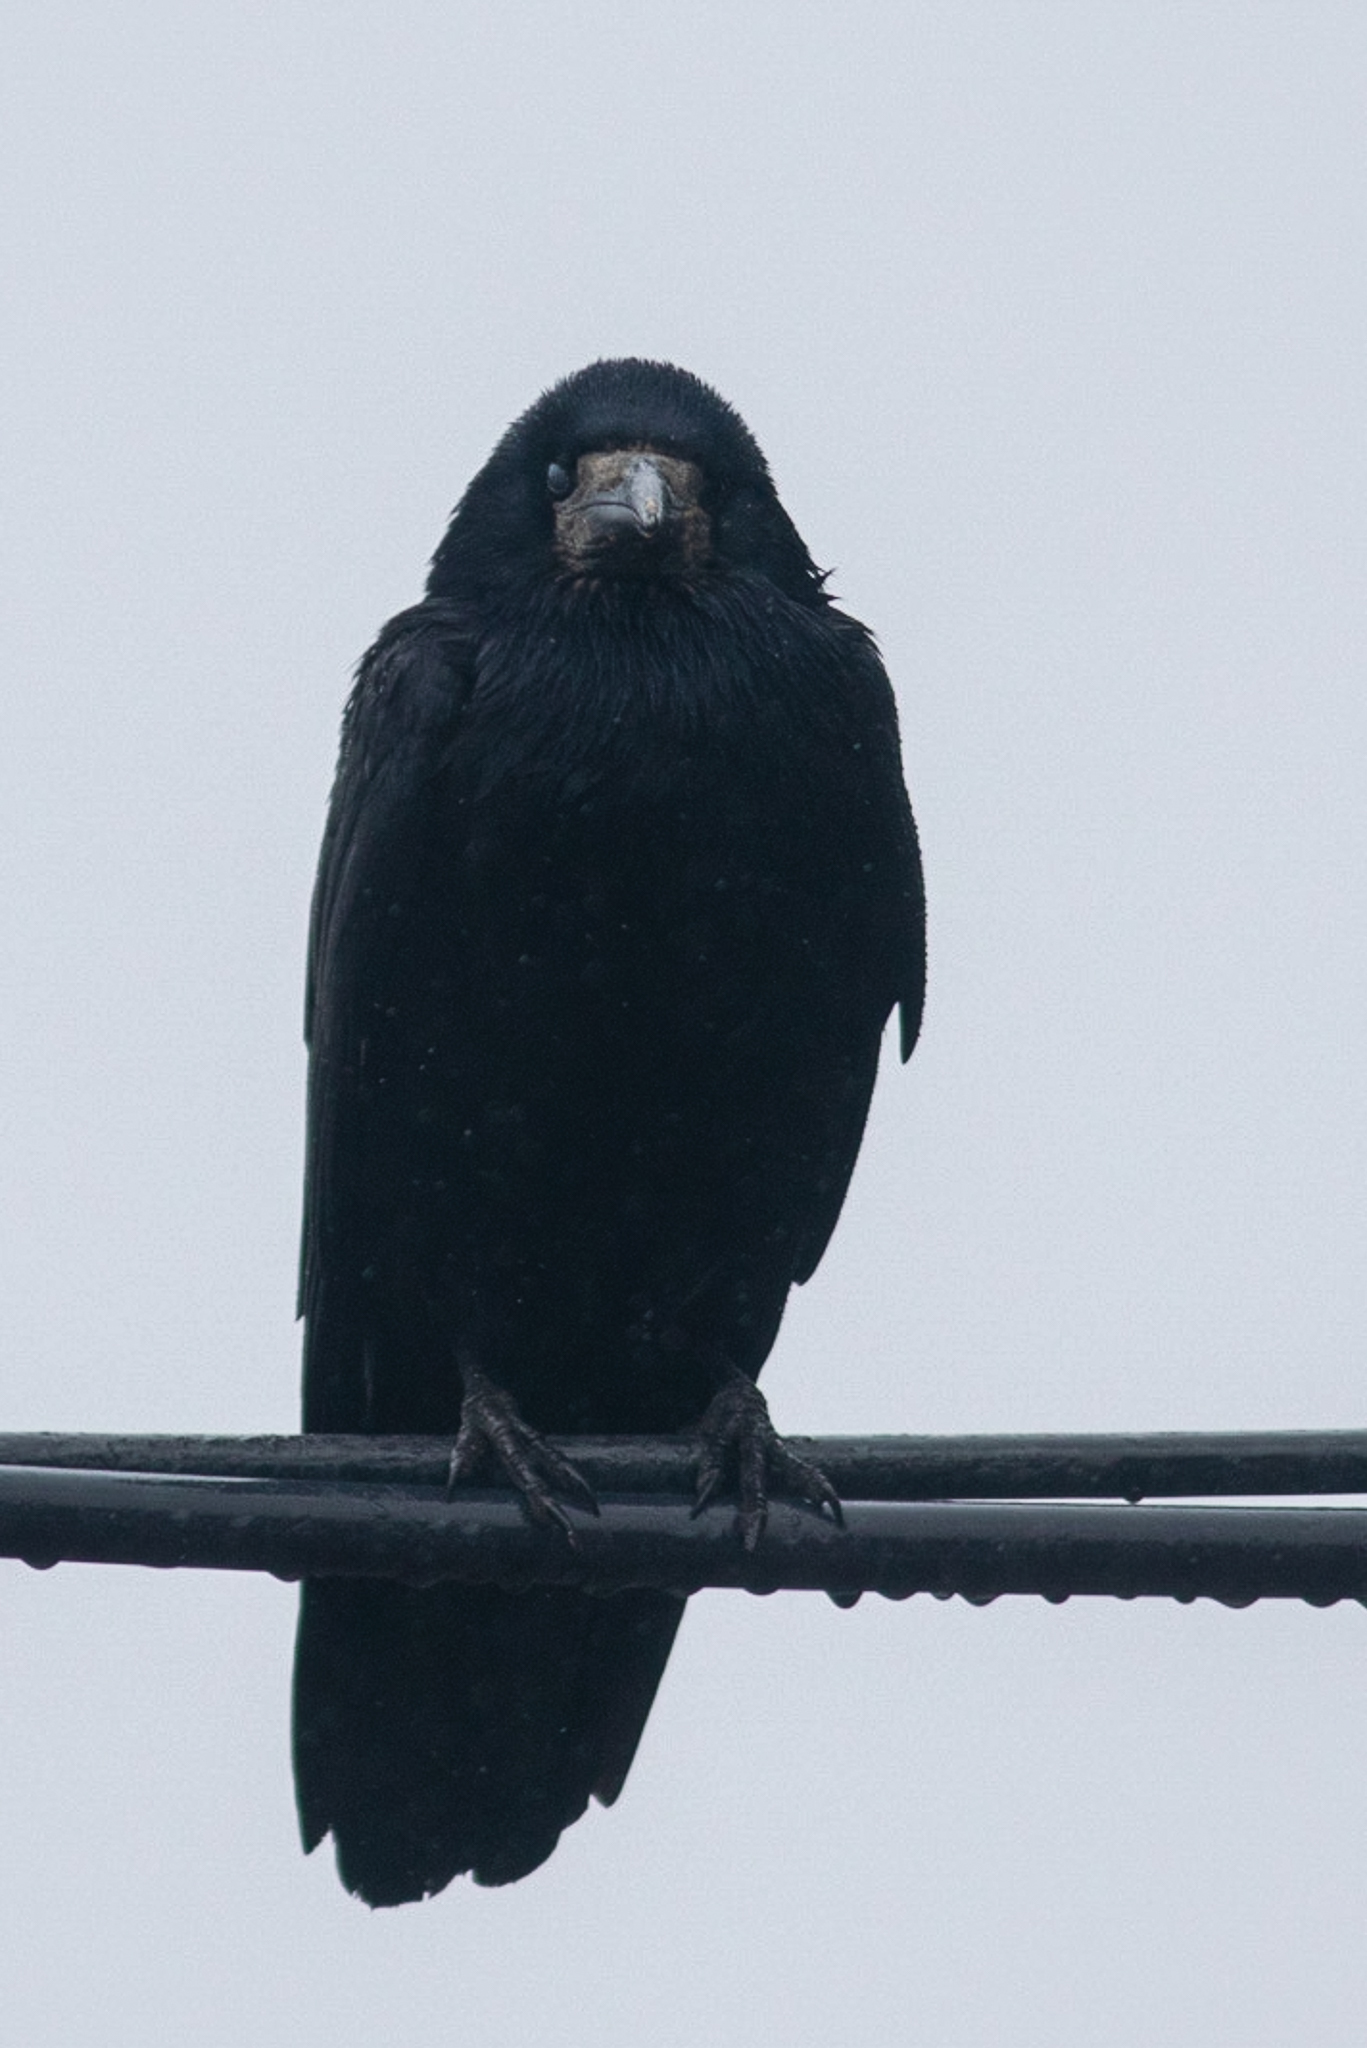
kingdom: Animalia
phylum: Chordata
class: Aves
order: Passeriformes
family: Corvidae
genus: Corvus
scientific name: Corvus frugilegus
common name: Rook
